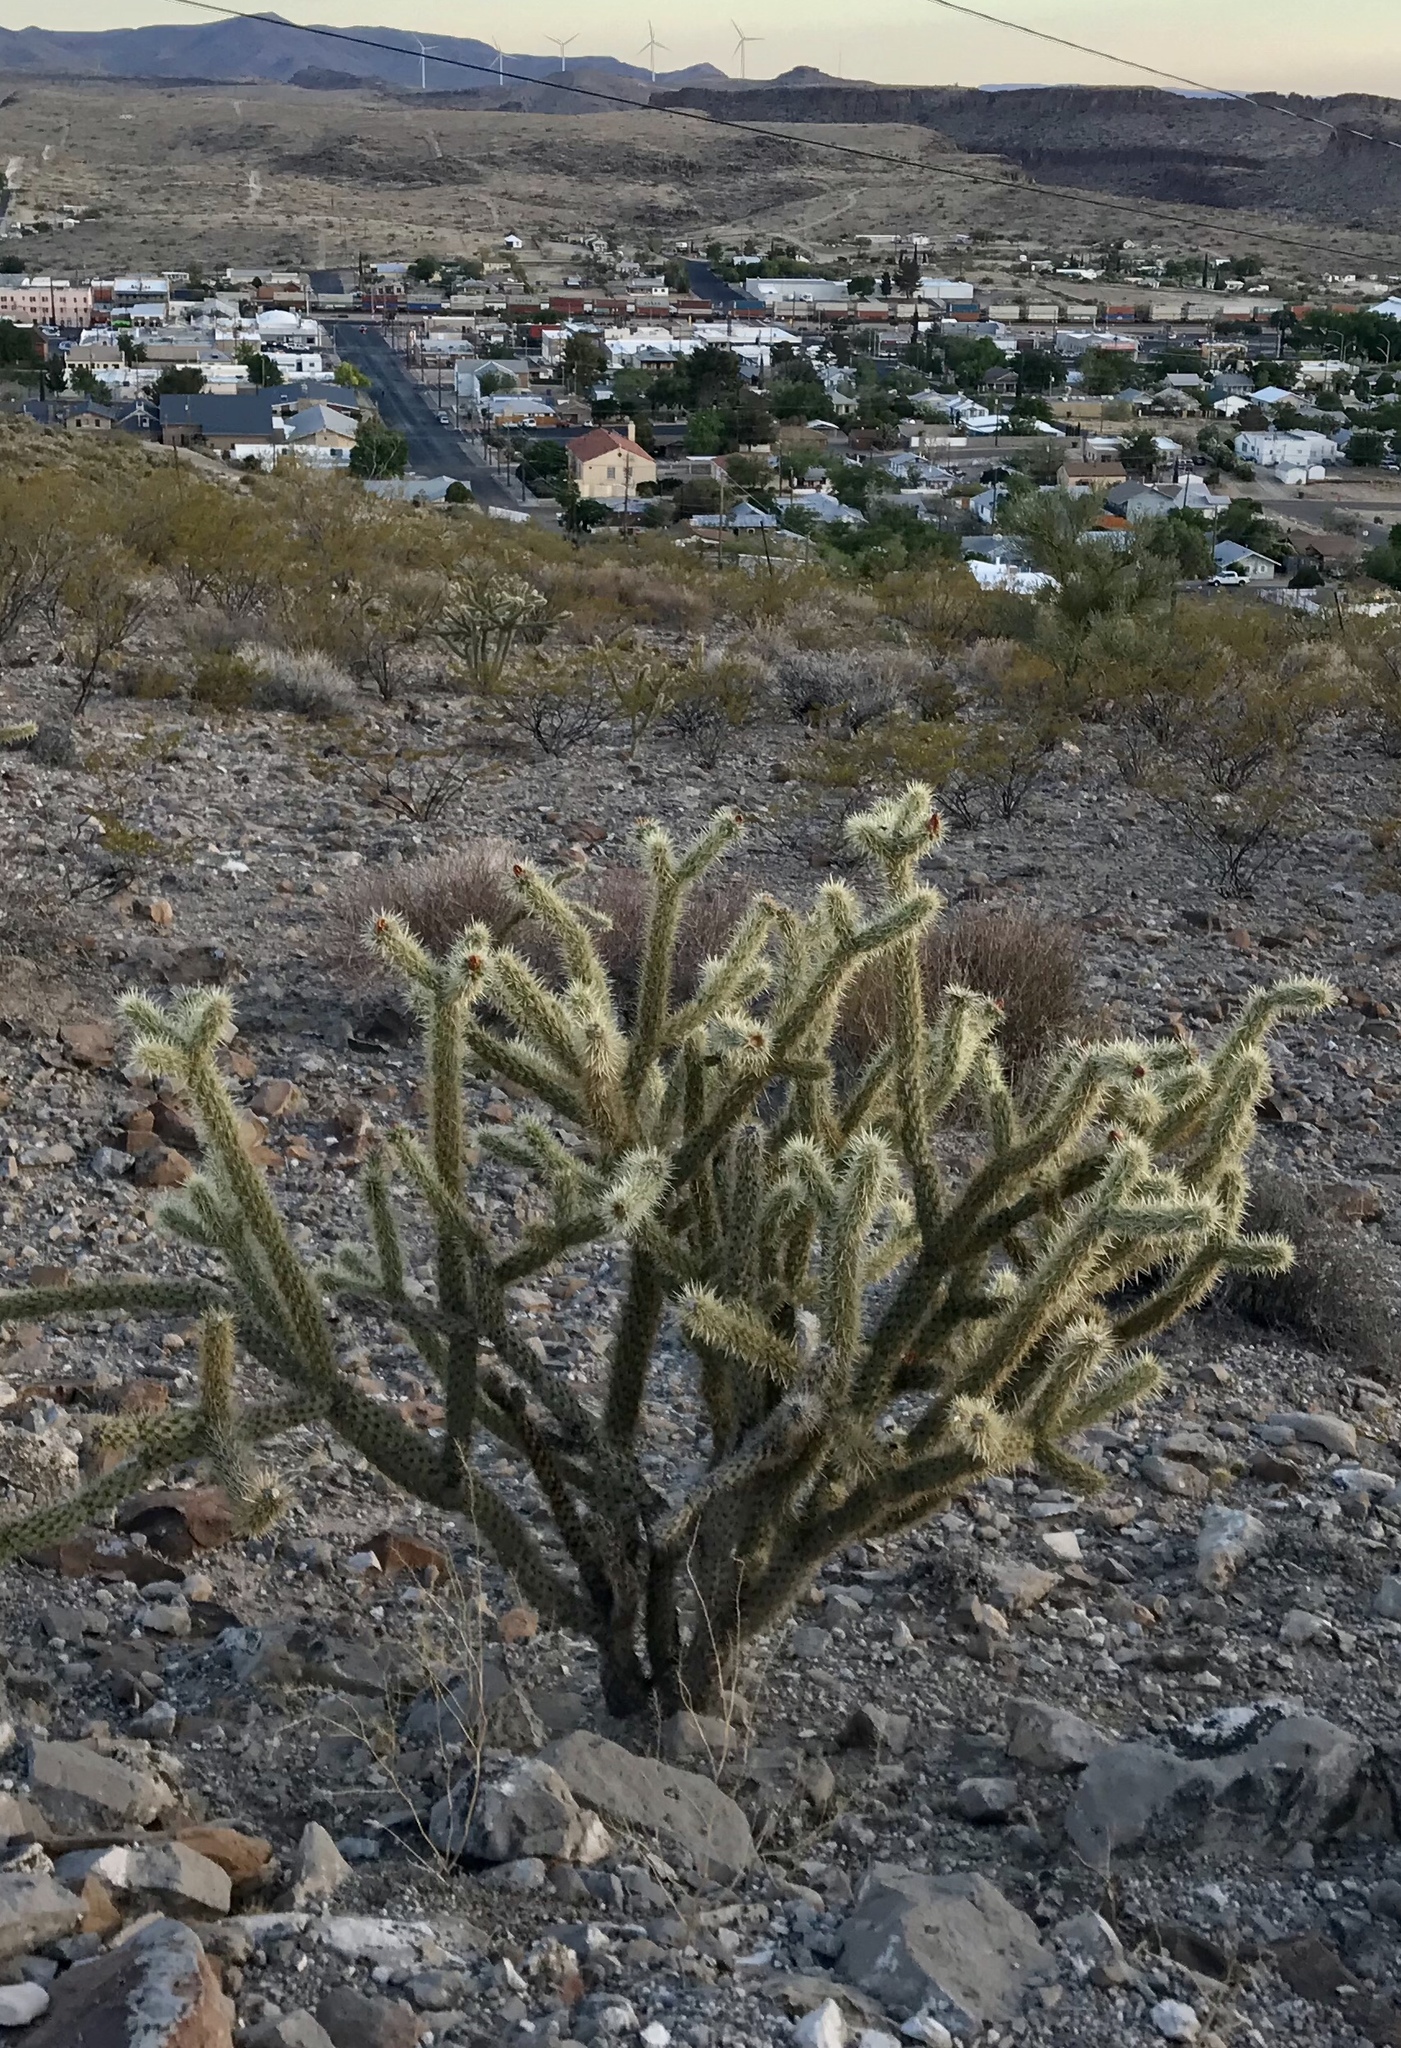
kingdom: Plantae
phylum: Tracheophyta
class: Magnoliopsida
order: Caryophyllales
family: Cactaceae
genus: Cylindropuntia
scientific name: Cylindropuntia acanthocarpa
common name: Buckhorn cholla
